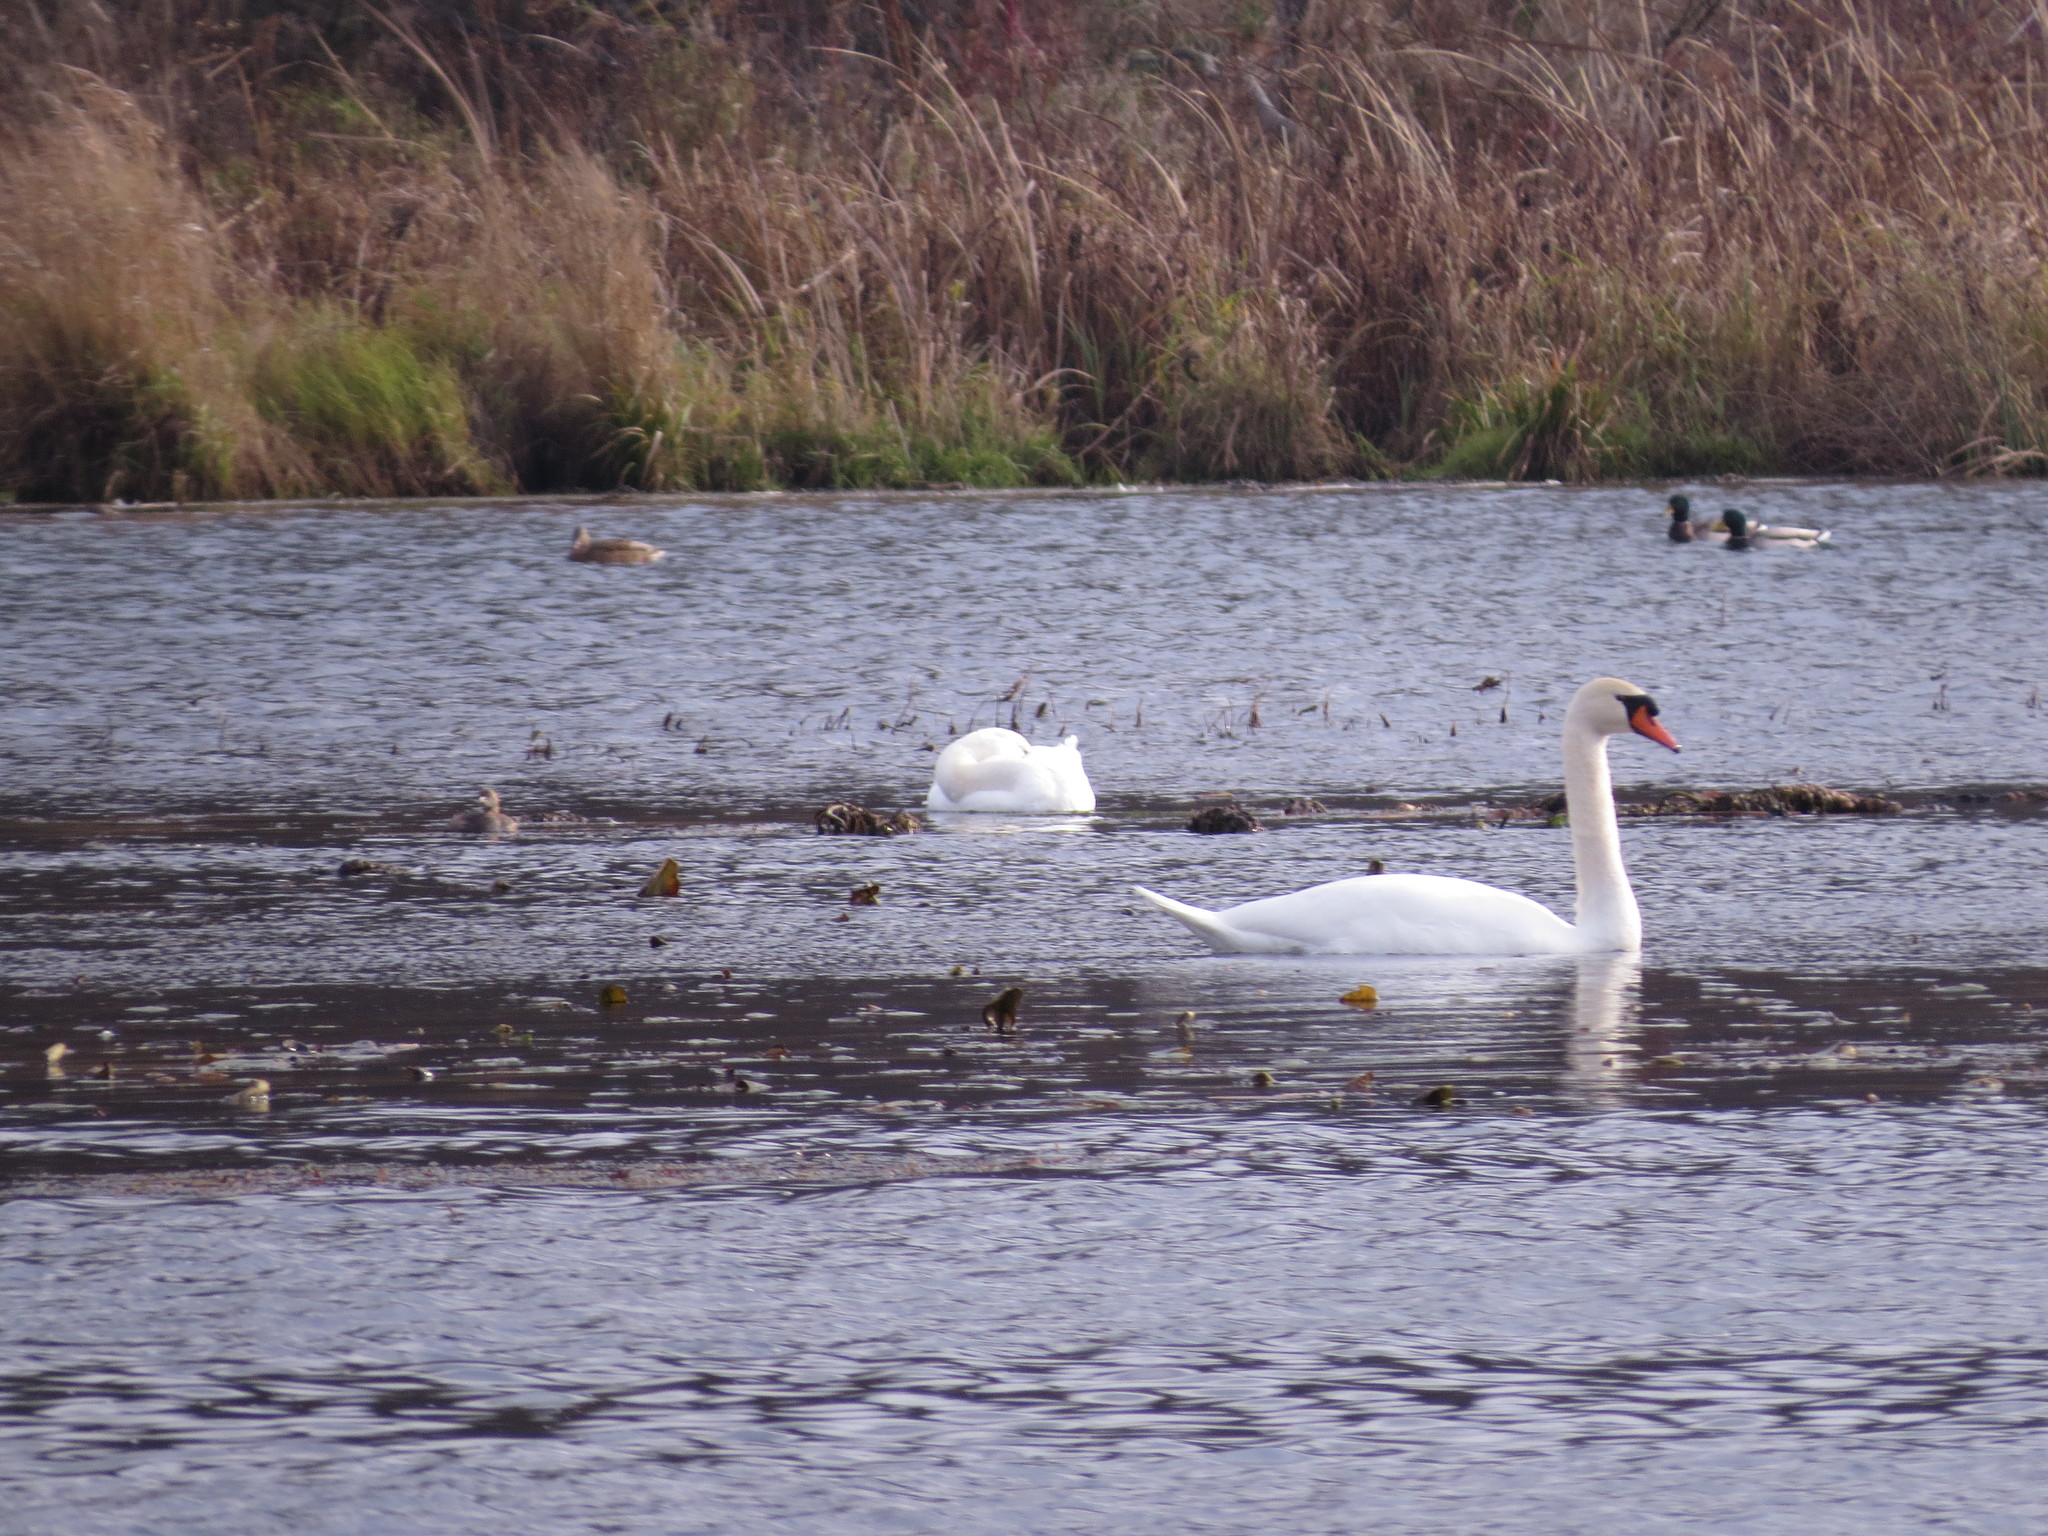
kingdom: Animalia
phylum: Chordata
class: Aves
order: Anseriformes
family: Anatidae
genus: Cygnus
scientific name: Cygnus olor
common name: Mute swan
